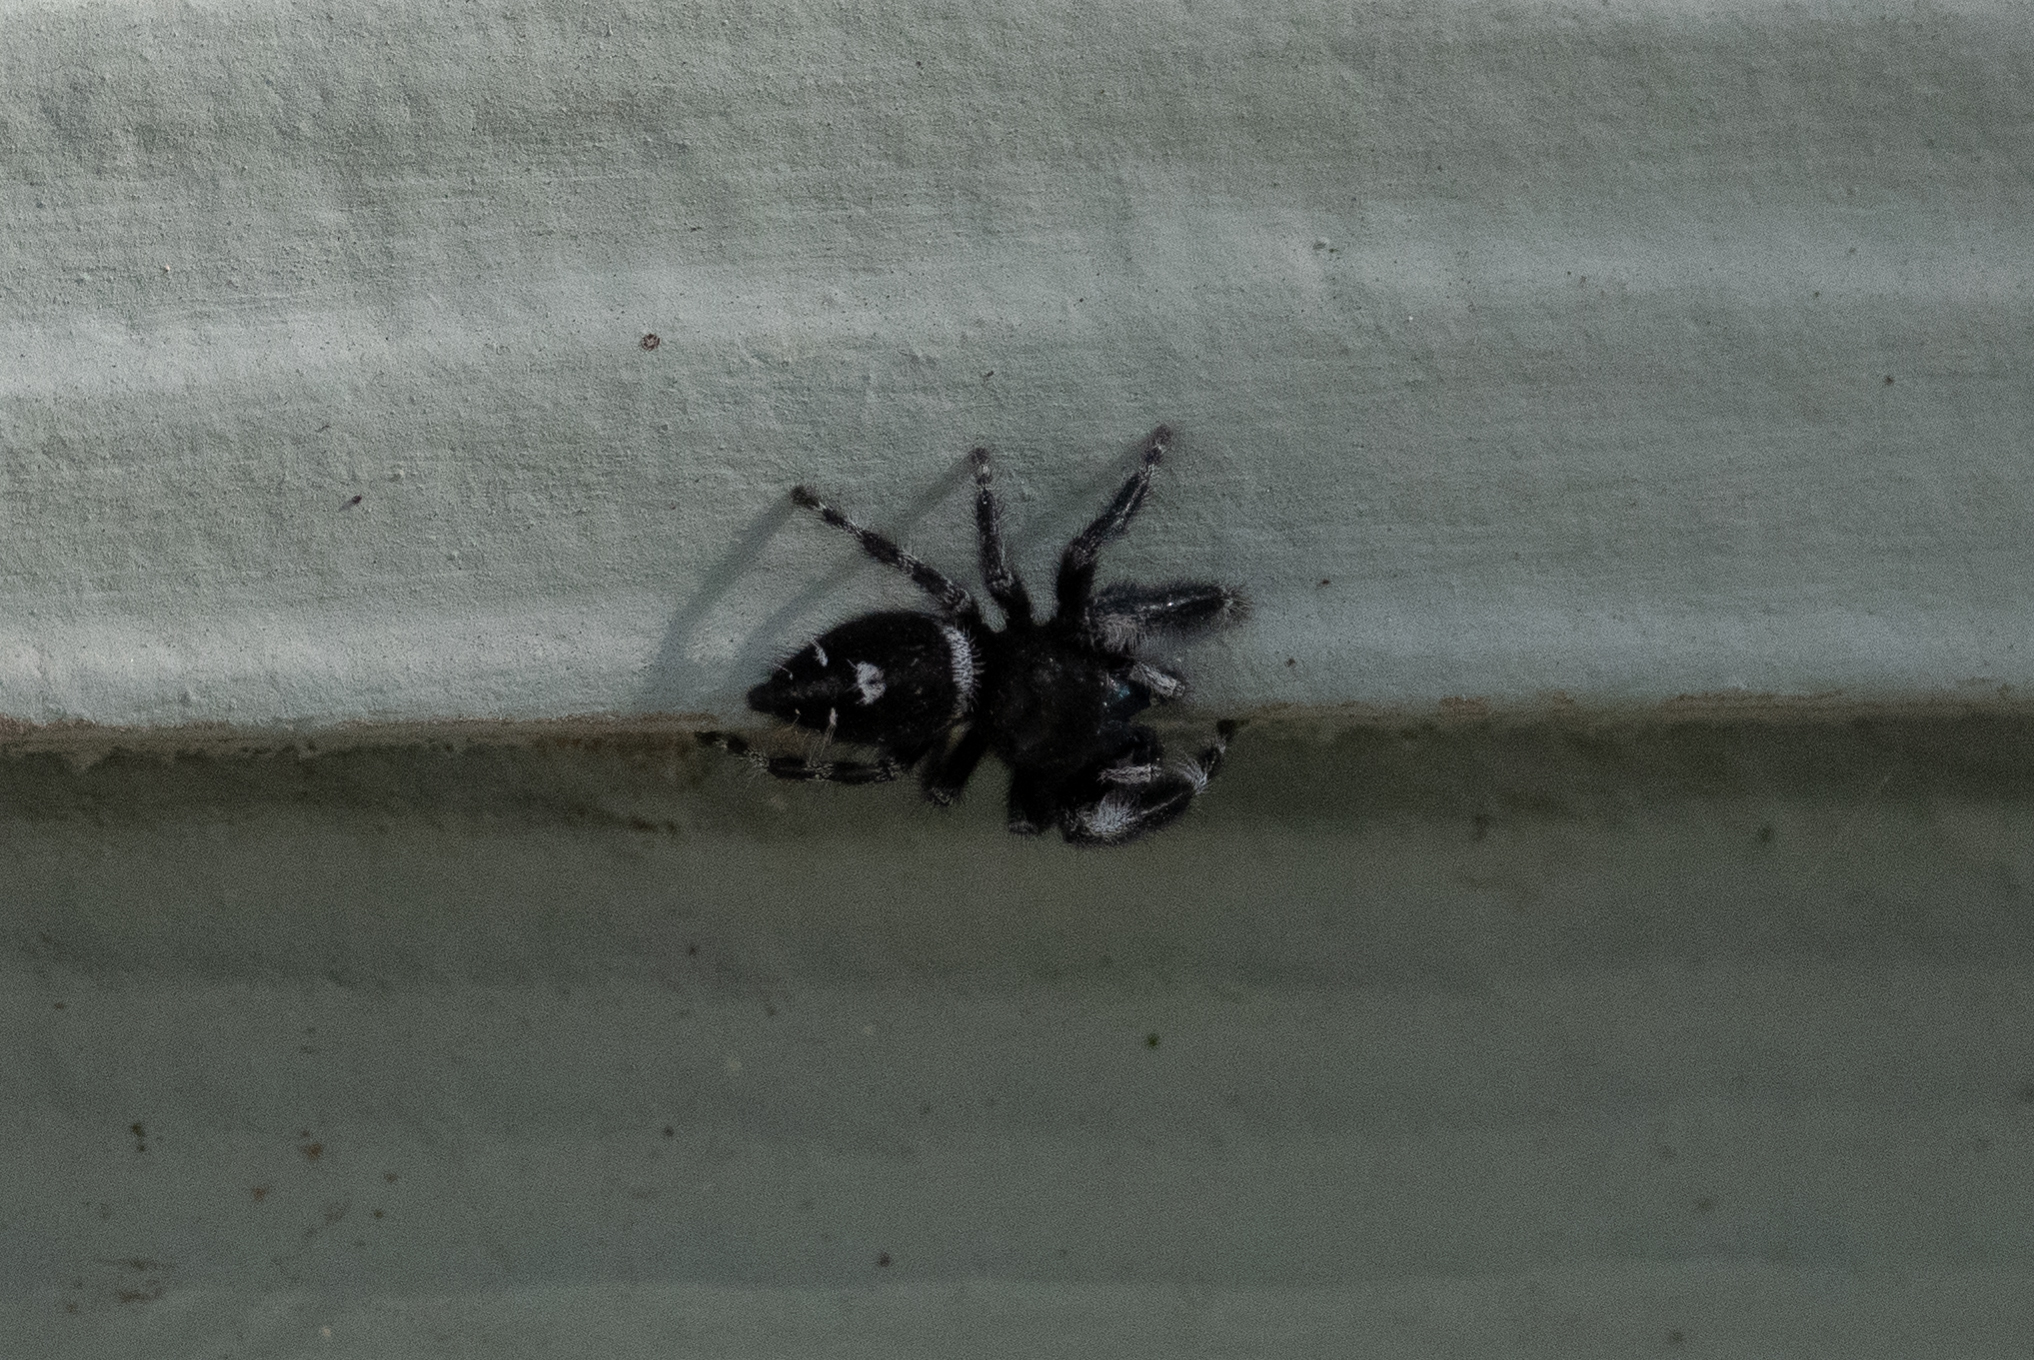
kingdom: Animalia
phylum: Arthropoda
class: Arachnida
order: Araneae
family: Salticidae
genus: Phidippus
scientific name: Phidippus audax
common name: Bold jumper
